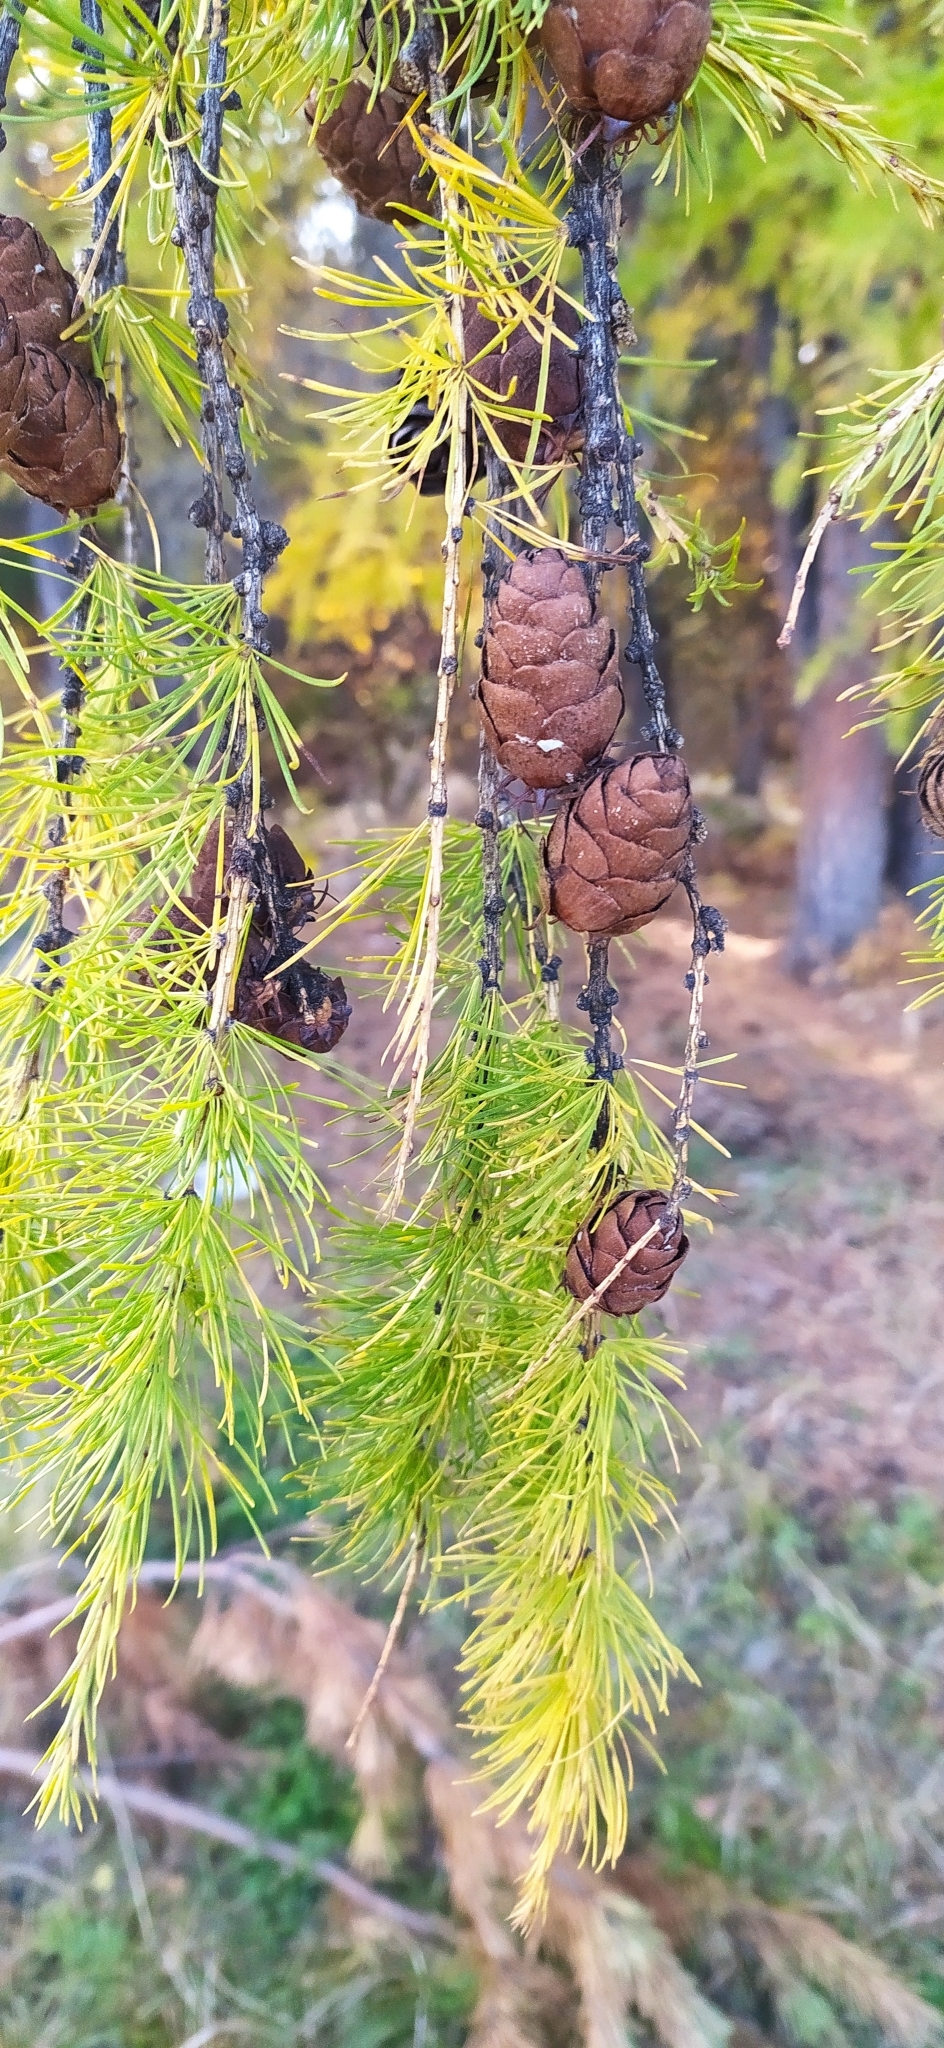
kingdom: Plantae
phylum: Tracheophyta
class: Pinopsida
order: Pinales
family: Pinaceae
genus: Larix
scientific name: Larix sibirica
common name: Siberian larch
